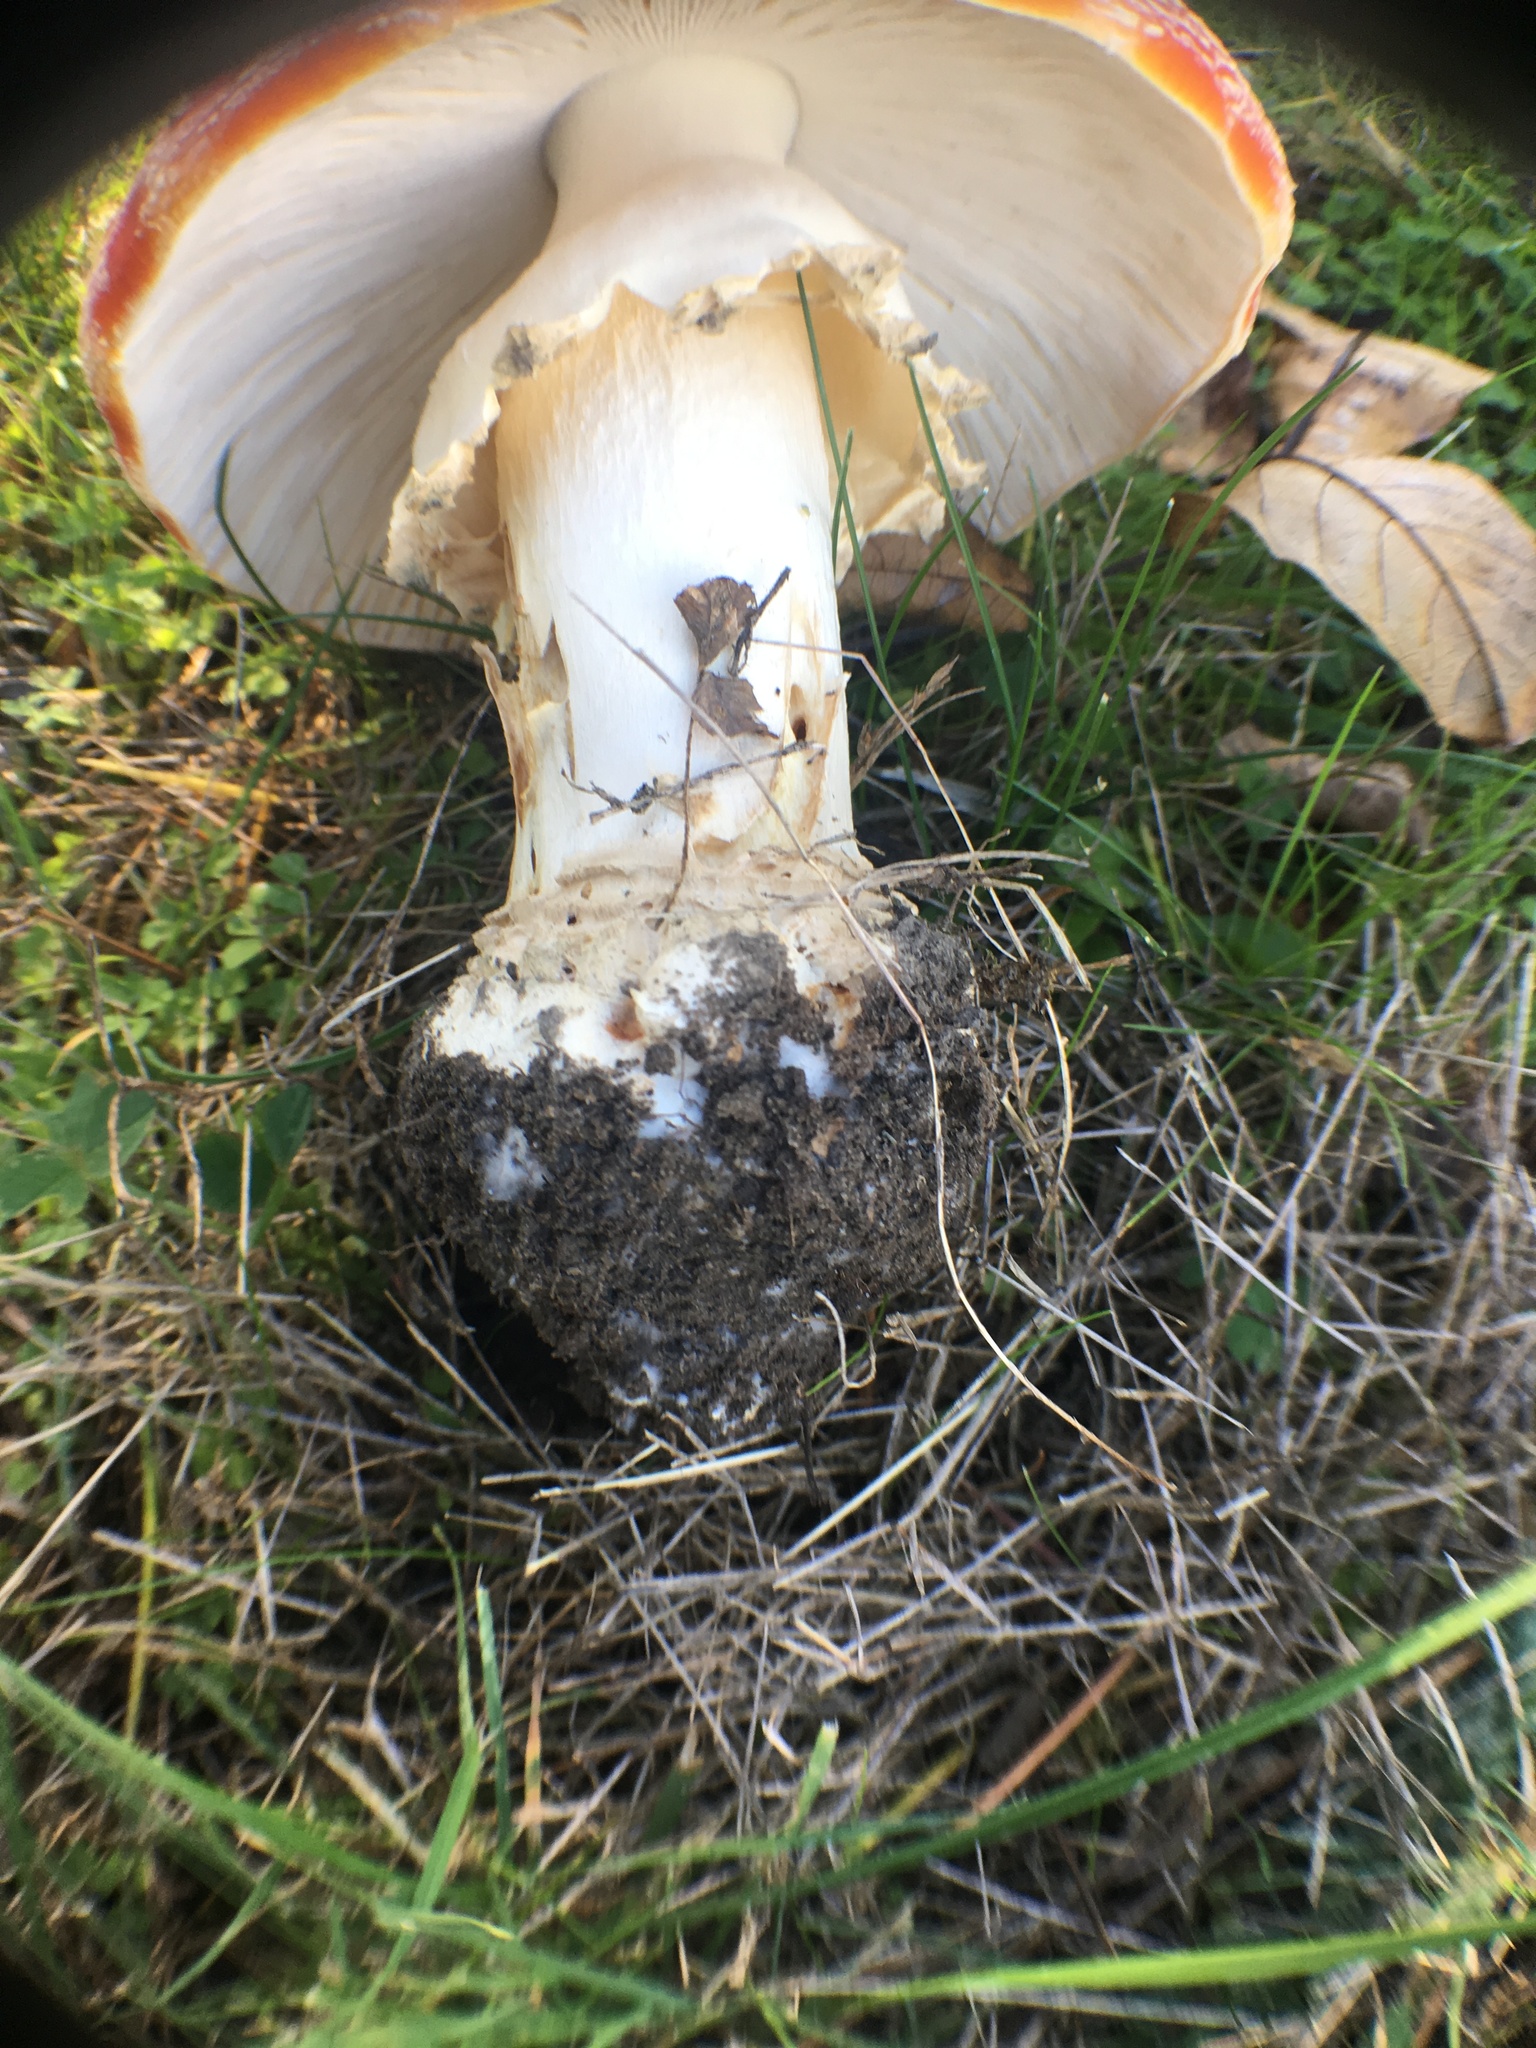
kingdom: Fungi
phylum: Basidiomycota
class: Agaricomycetes
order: Agaricales
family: Amanitaceae
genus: Amanita
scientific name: Amanita muscaria
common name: Fly agaric
